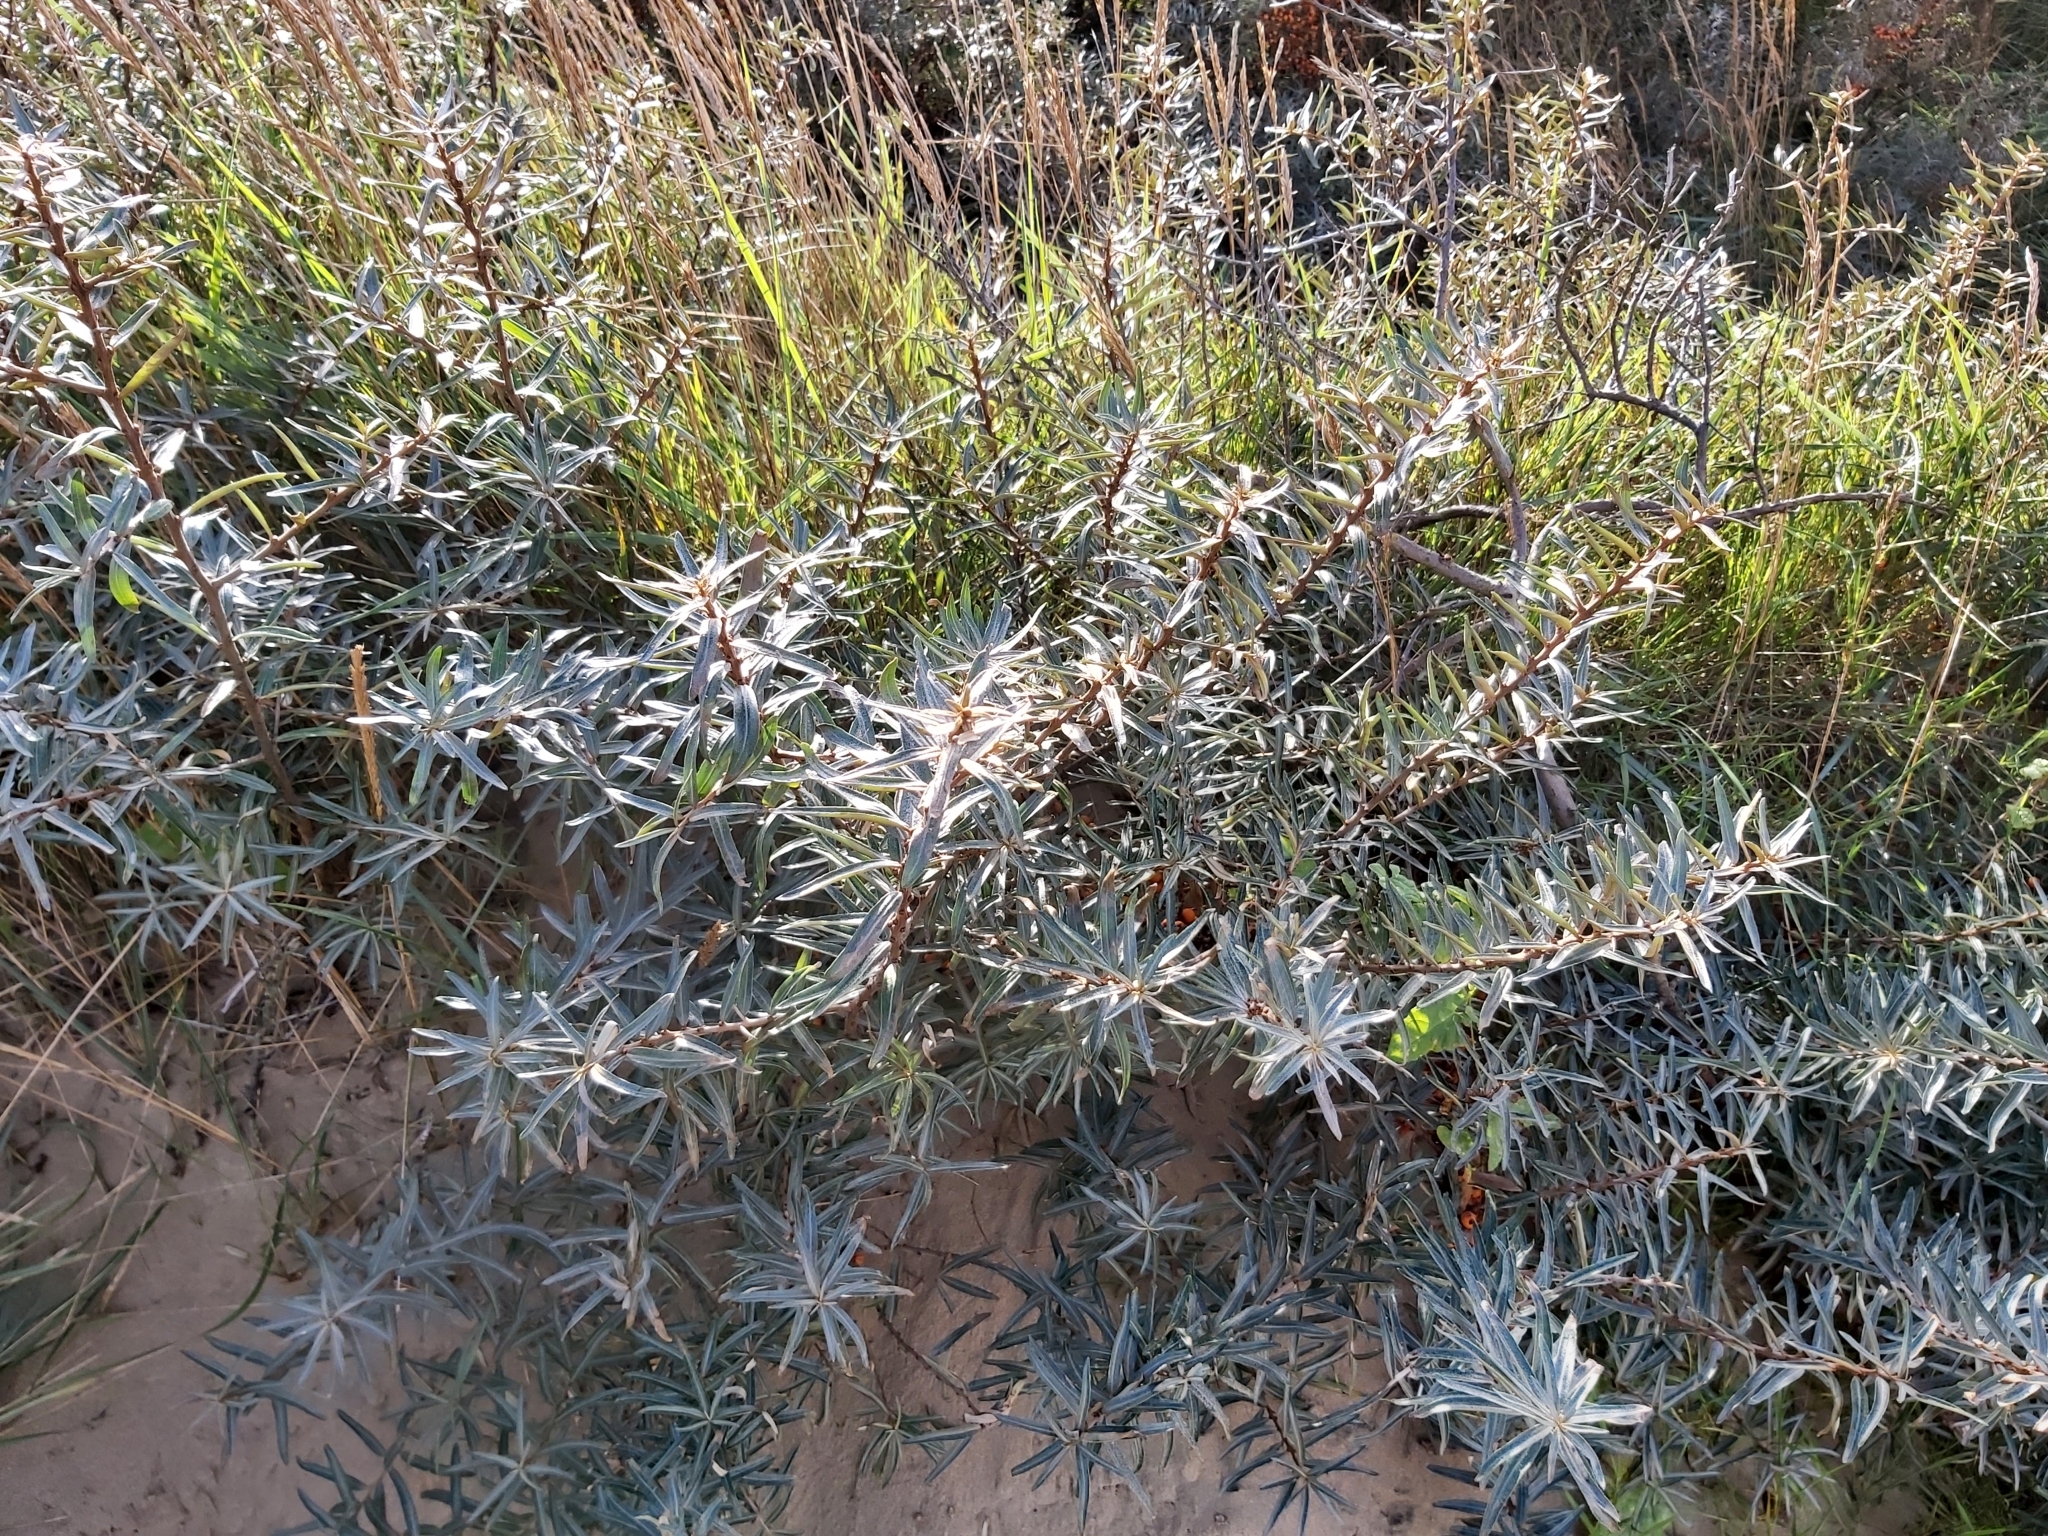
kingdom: Plantae
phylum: Tracheophyta
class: Magnoliopsida
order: Rosales
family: Elaeagnaceae
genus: Hippophae
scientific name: Hippophae rhamnoides
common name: Sea-buckthorn
